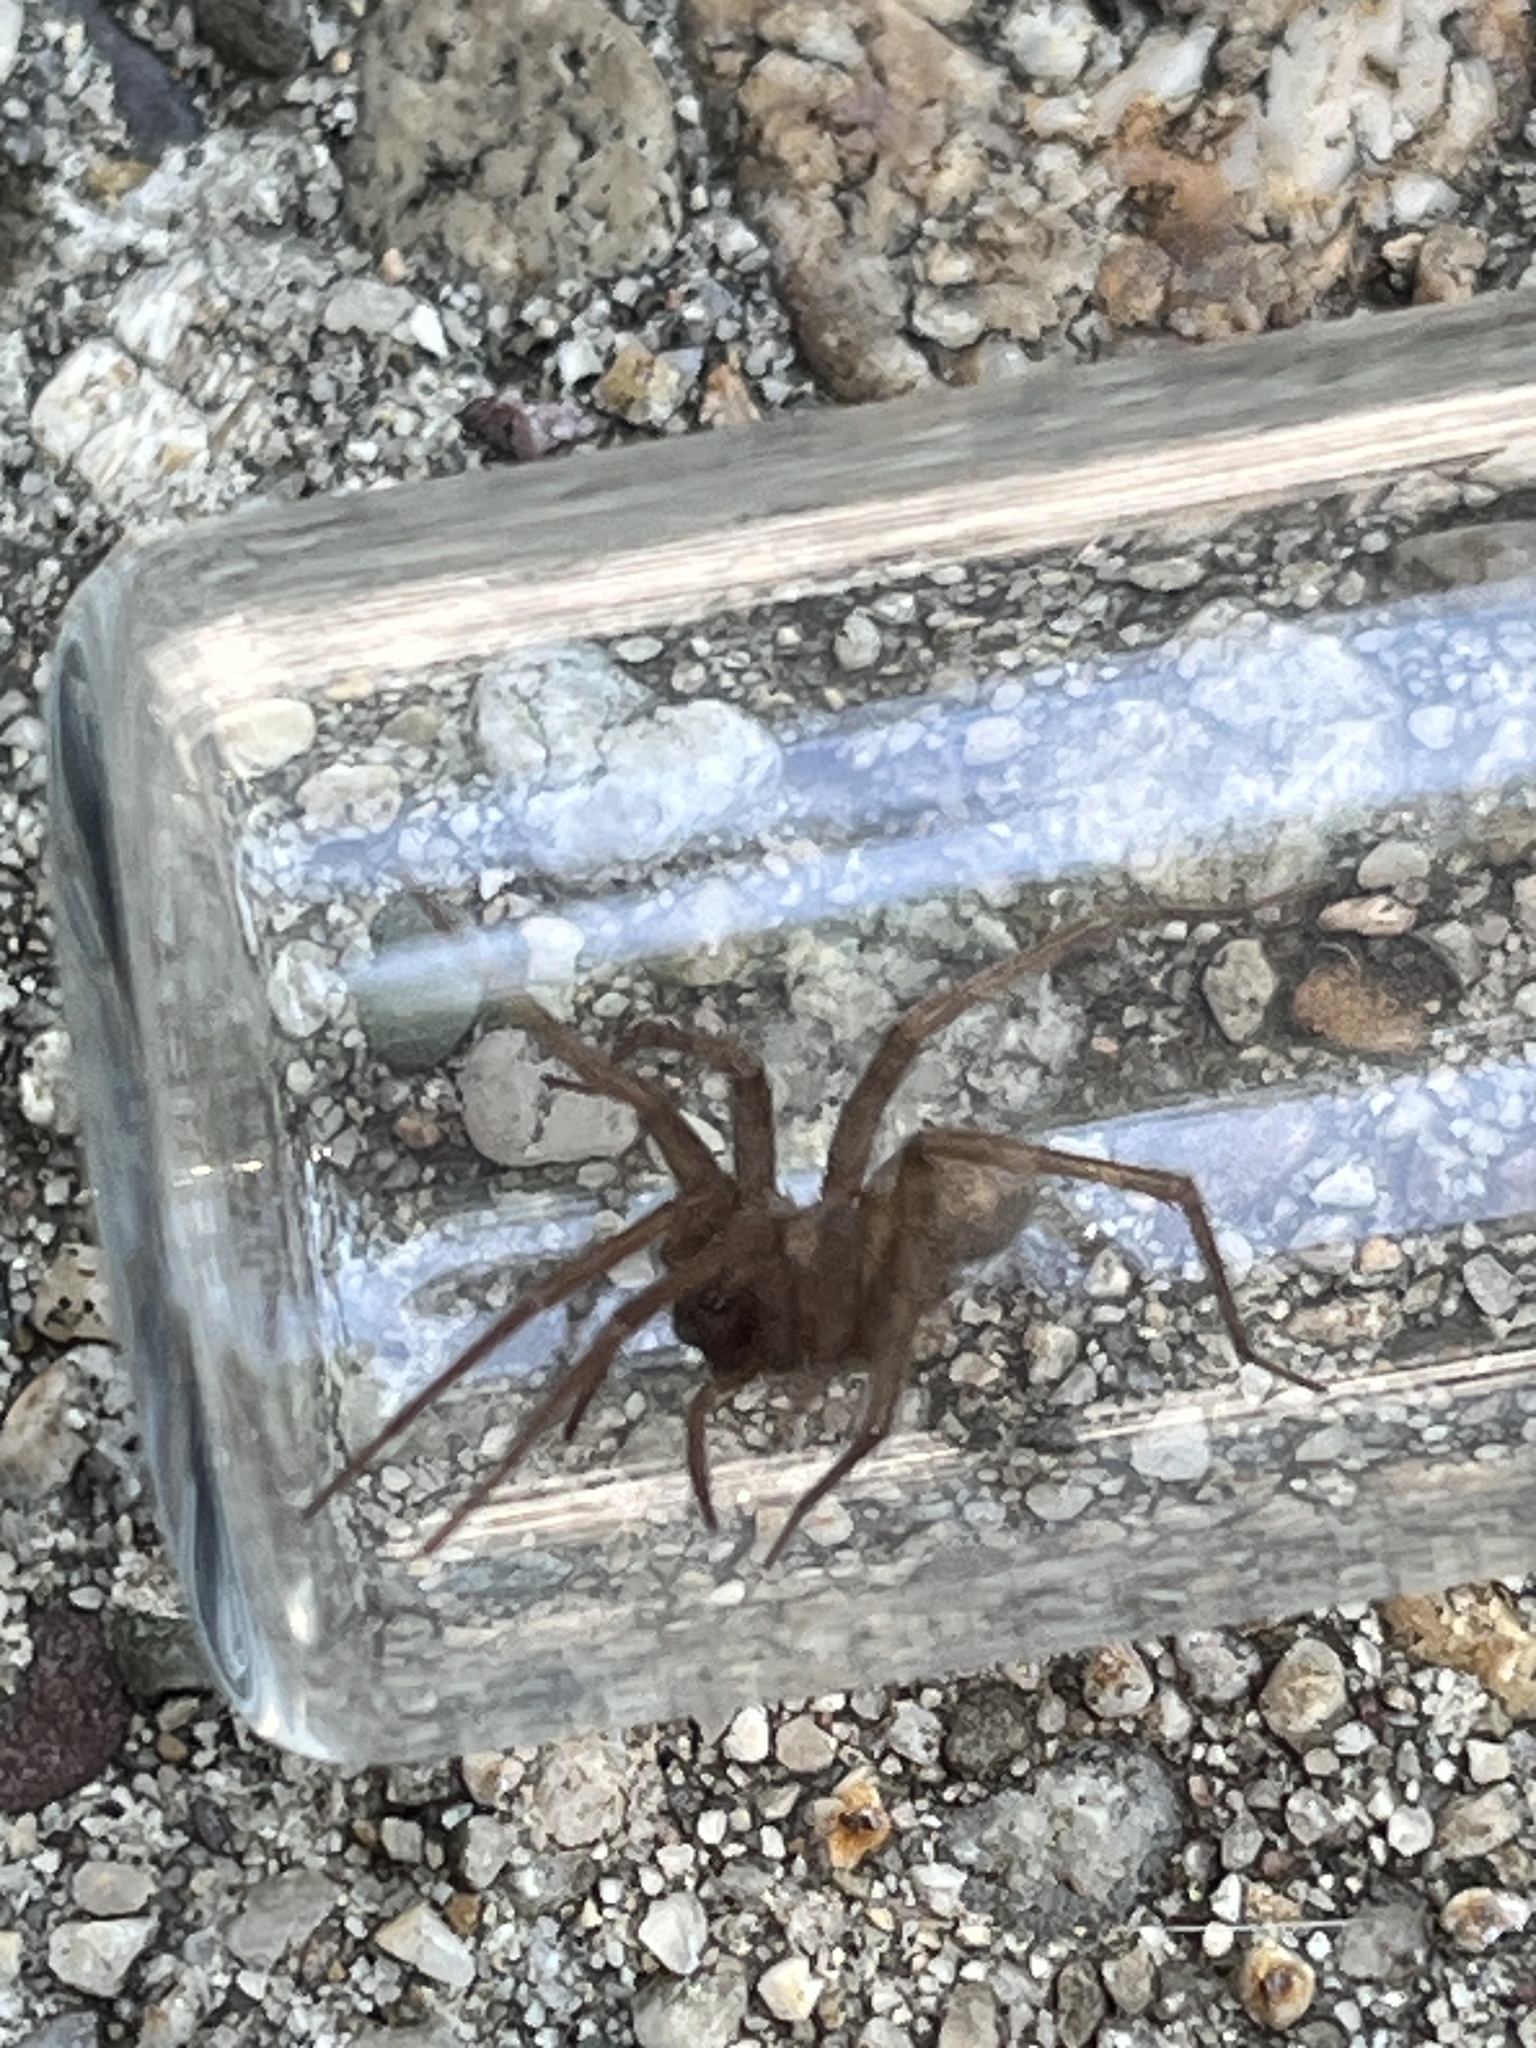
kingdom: Animalia
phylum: Arthropoda
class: Arachnida
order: Araneae
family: Agelenidae
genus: Tegenaria
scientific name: Tegenaria domestica
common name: Barn funnel weaver
